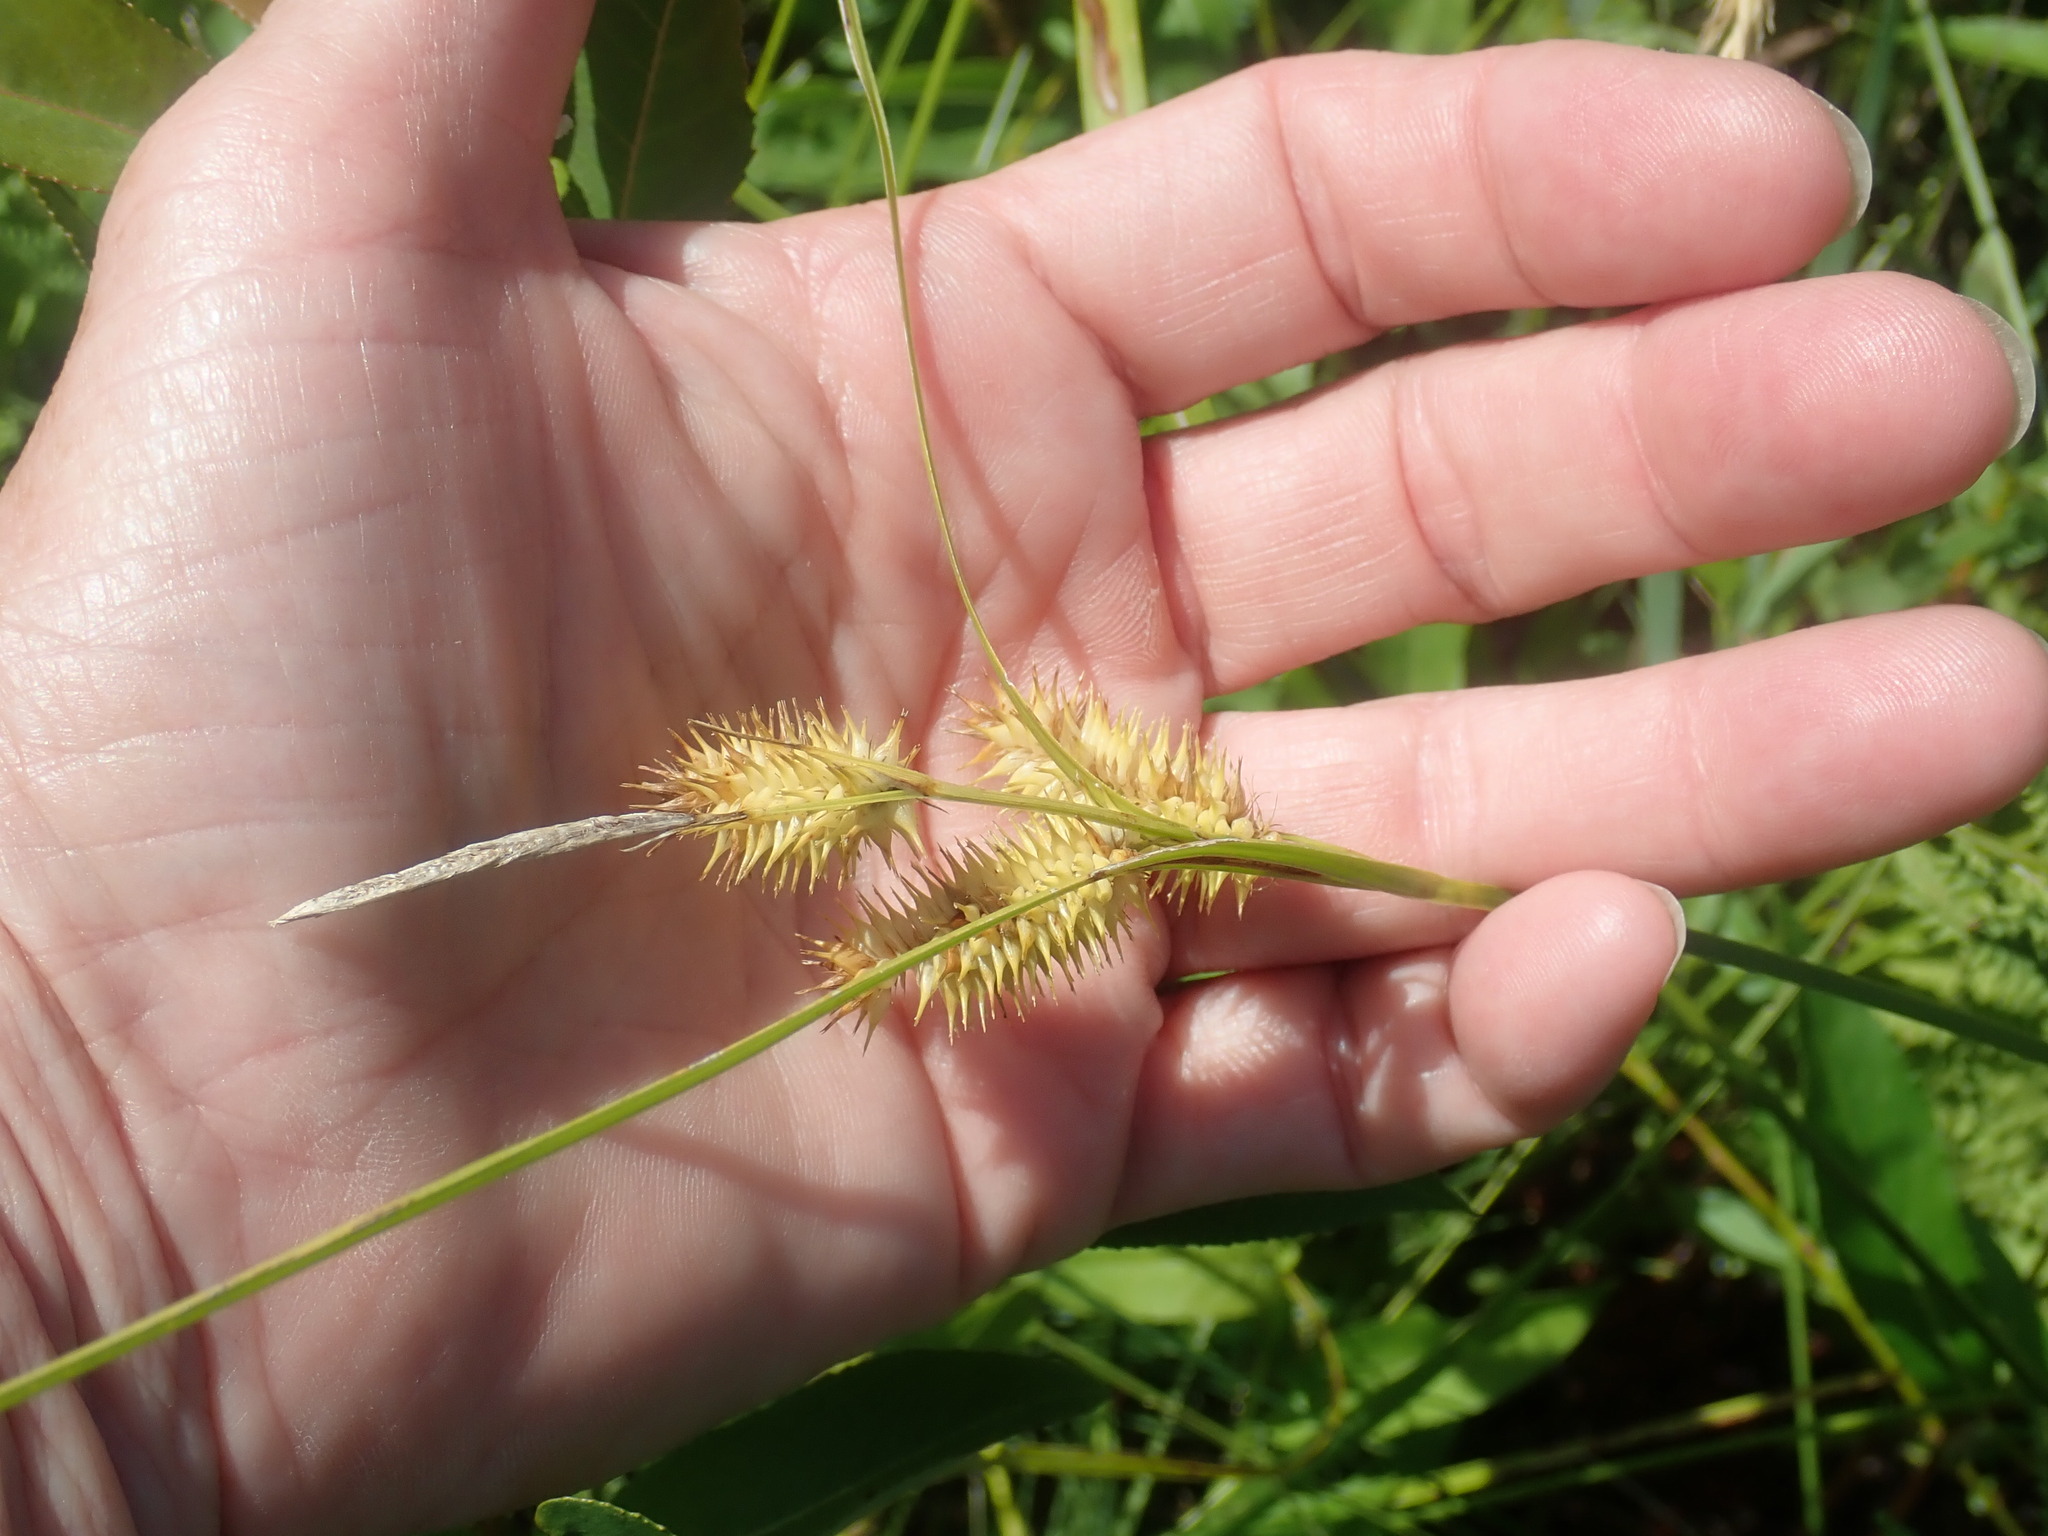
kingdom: Plantae
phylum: Tracheophyta
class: Liliopsida
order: Poales
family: Cyperaceae
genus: Carex
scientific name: Carex hystericina
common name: Bottlebrush sedge
